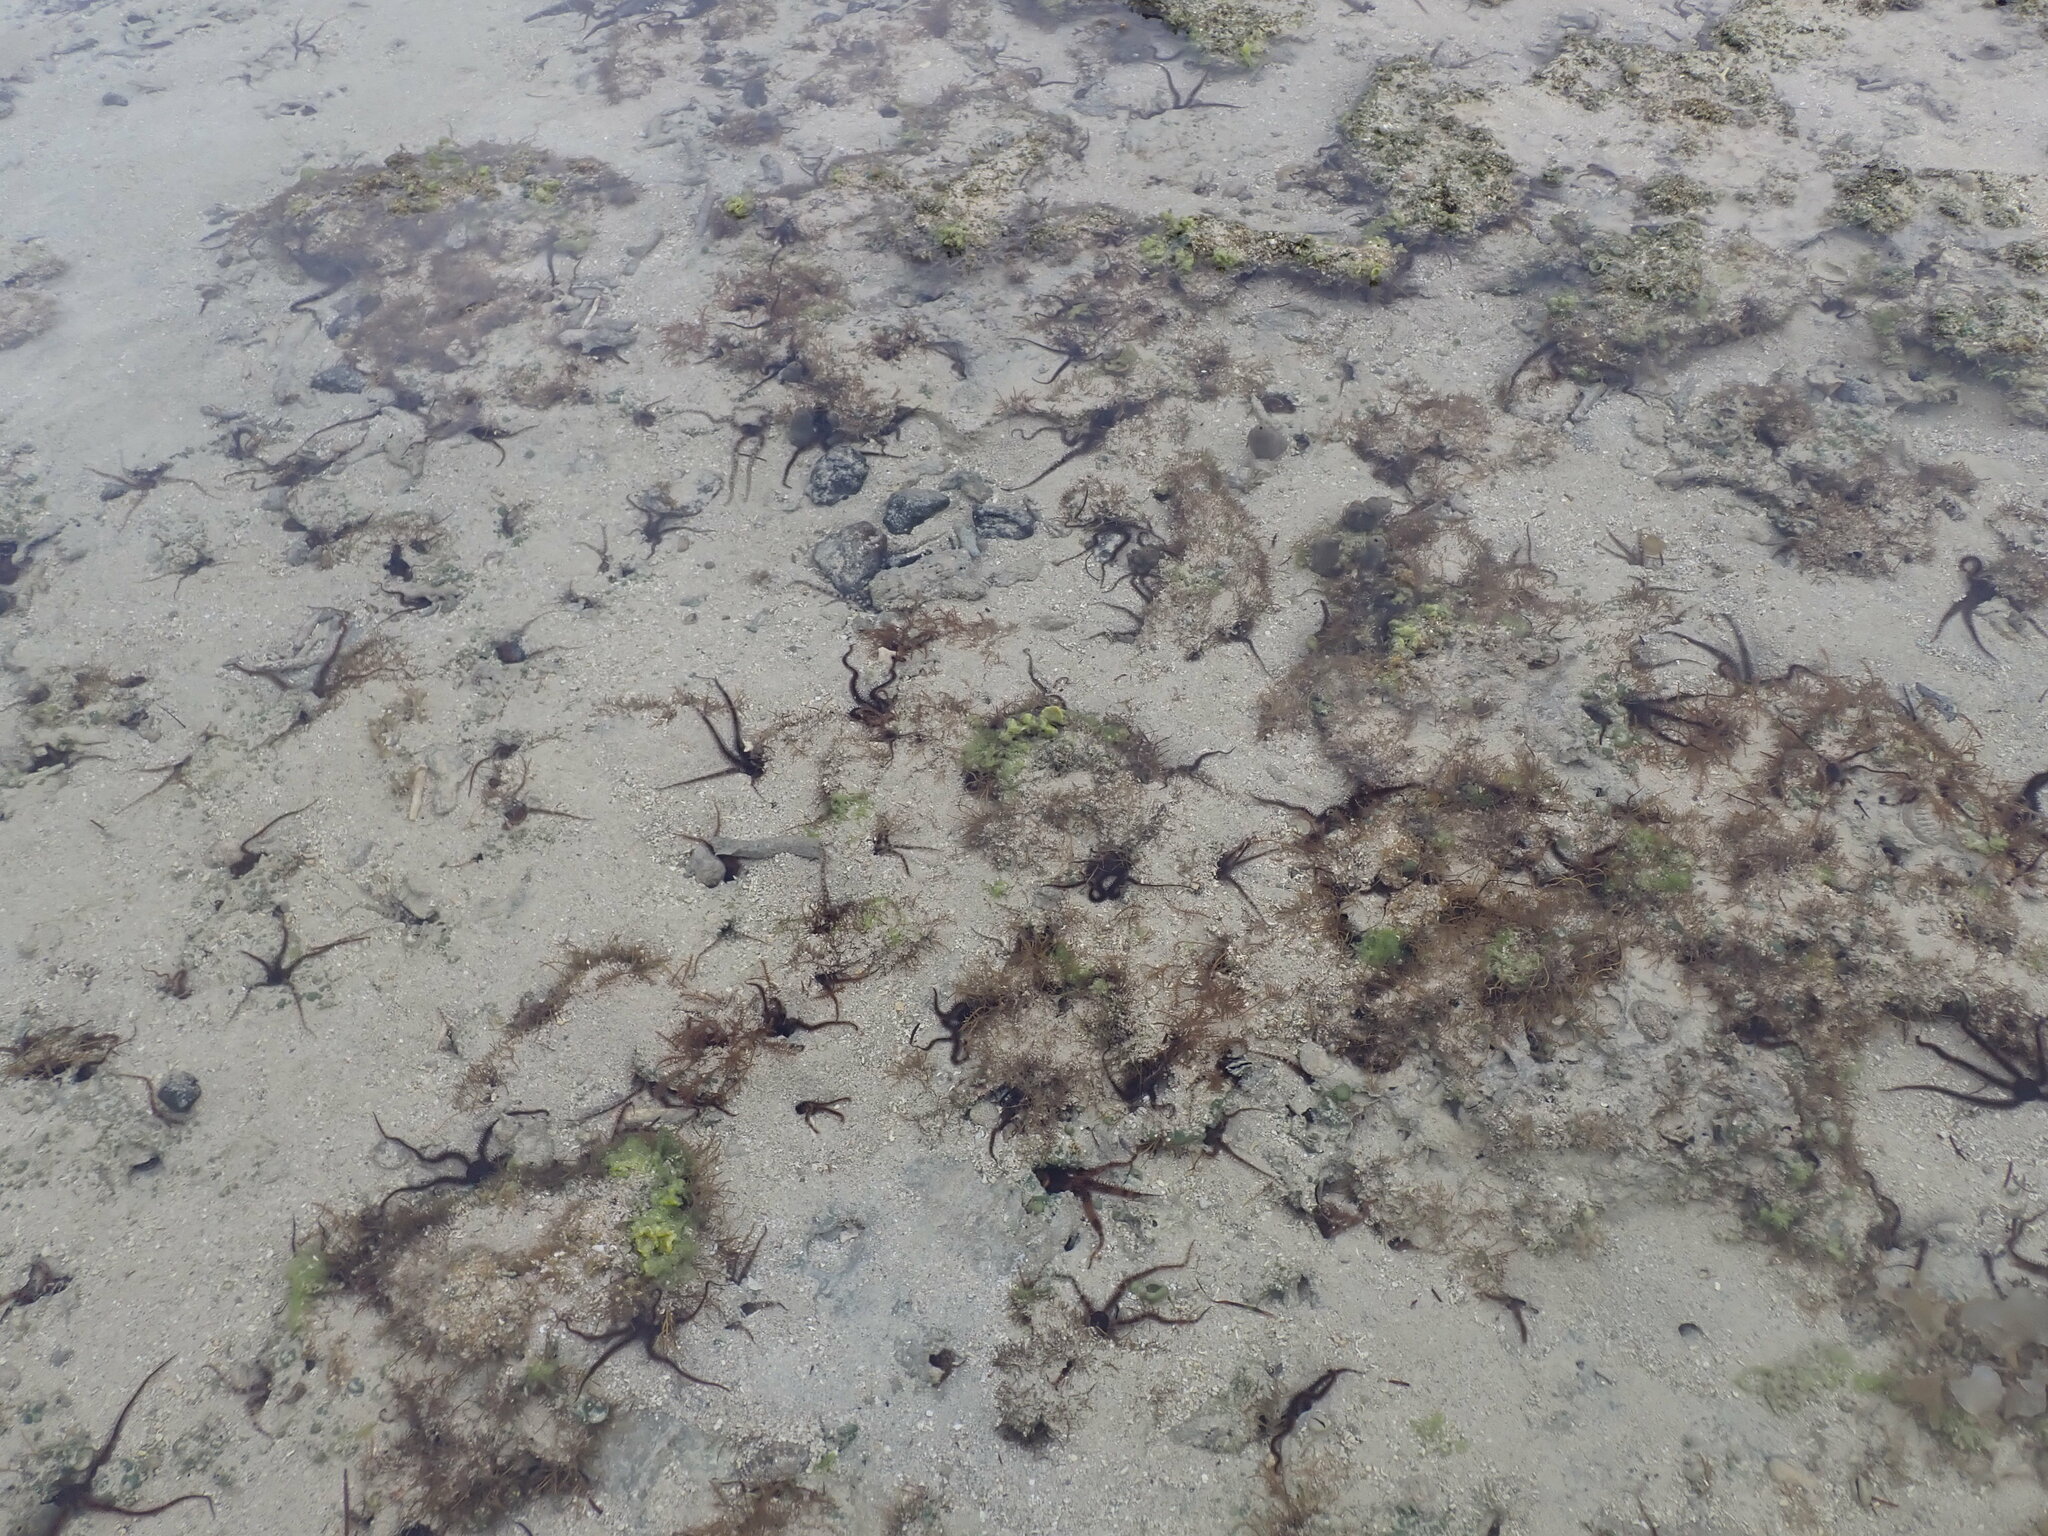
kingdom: Animalia
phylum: Echinodermata
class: Ophiuroidea
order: Ophiacanthida
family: Ophiocomidae
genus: Ophiocoma
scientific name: Ophiocoma scolopendrina
